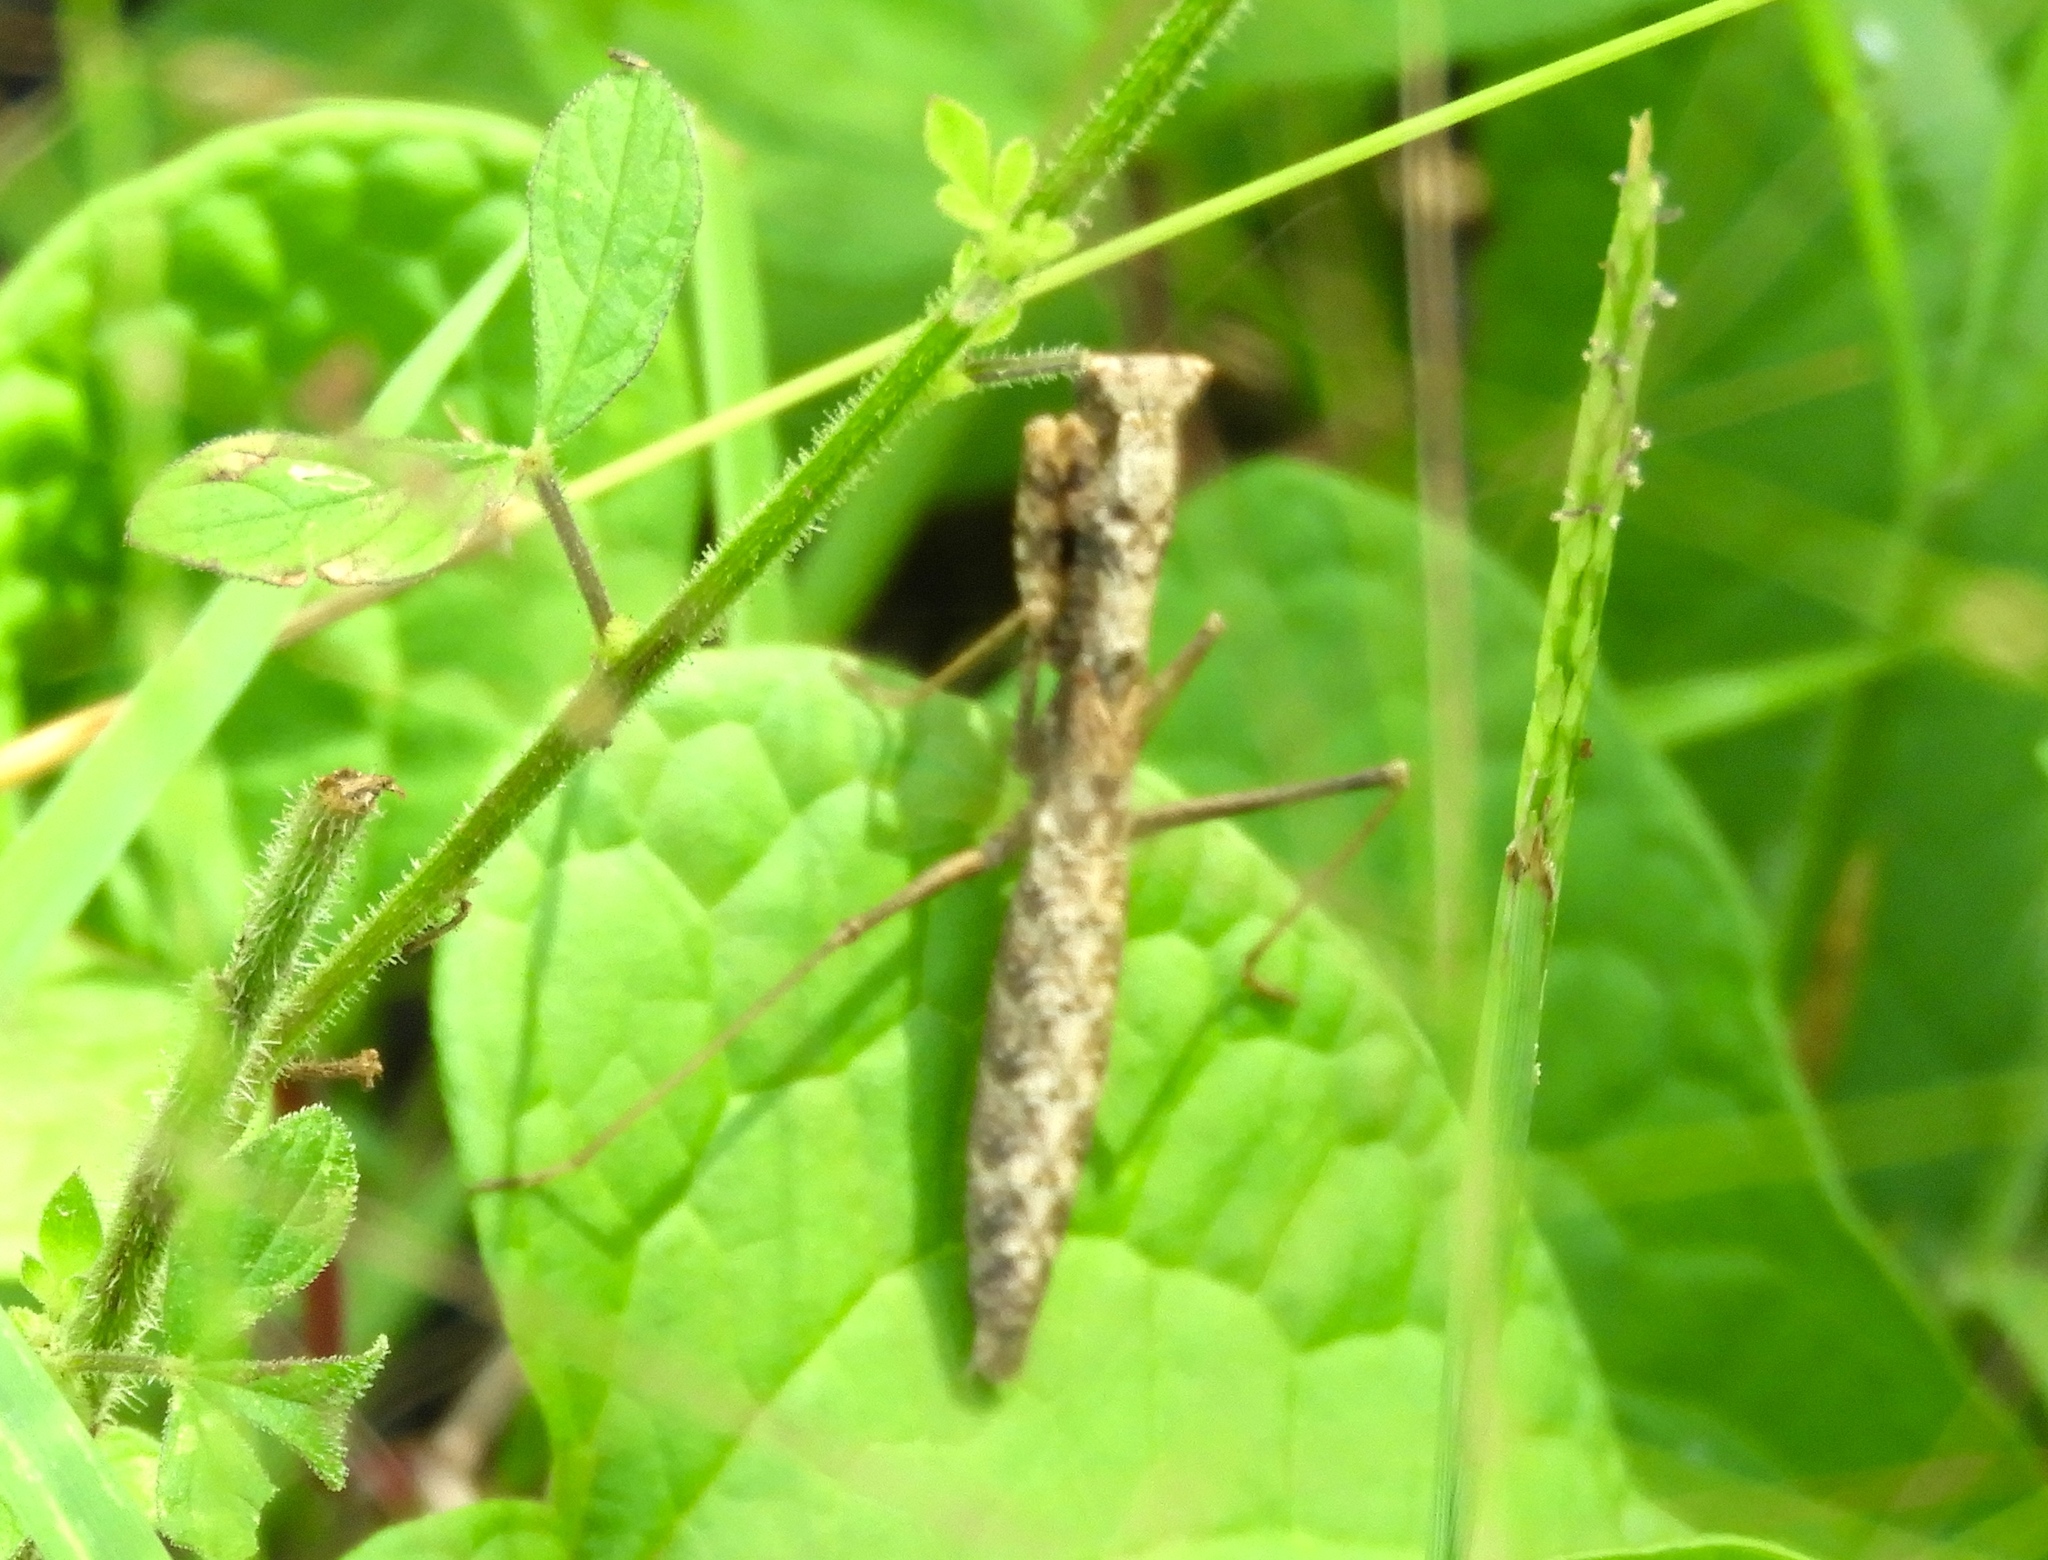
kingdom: Animalia
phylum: Arthropoda
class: Insecta
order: Mantodea
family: Amelidae
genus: Yersinia
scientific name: Yersinia mexicana
